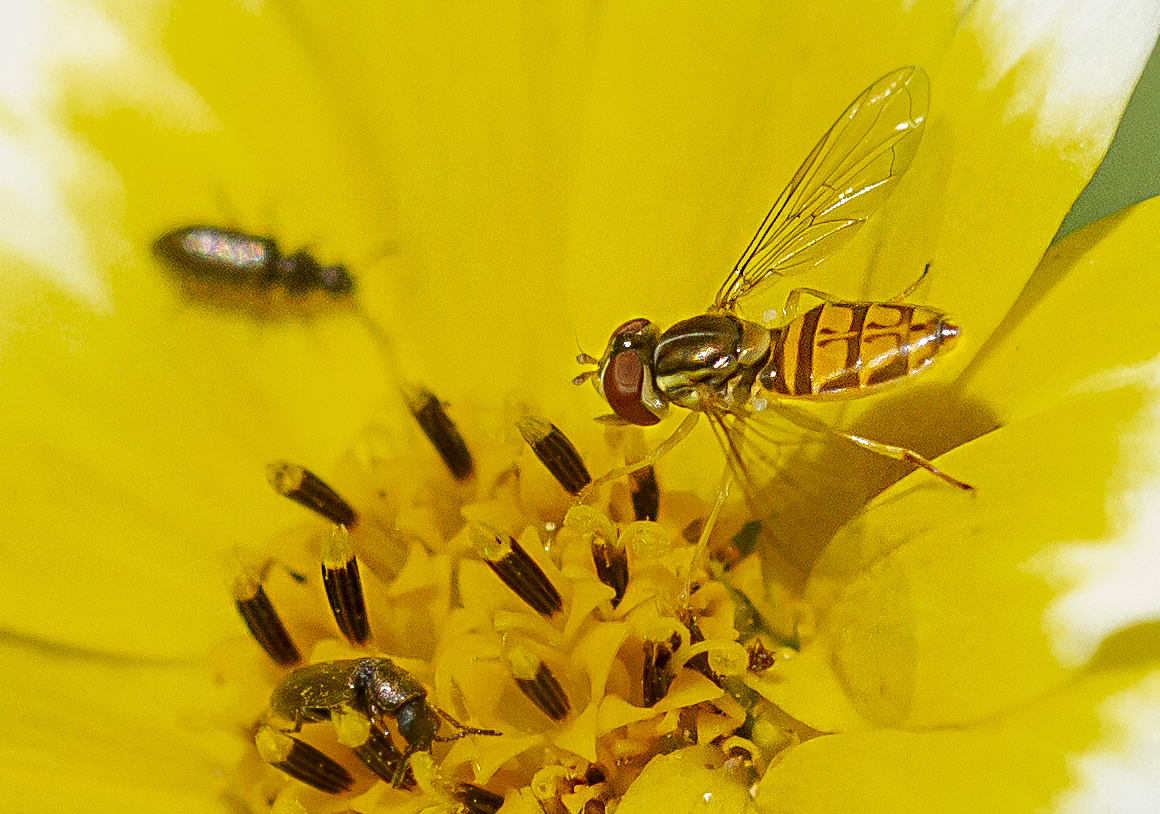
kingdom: Animalia
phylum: Arthropoda
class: Insecta
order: Diptera
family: Syrphidae
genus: Toxomerus
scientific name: Toxomerus marginatus
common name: Syrphid fly
